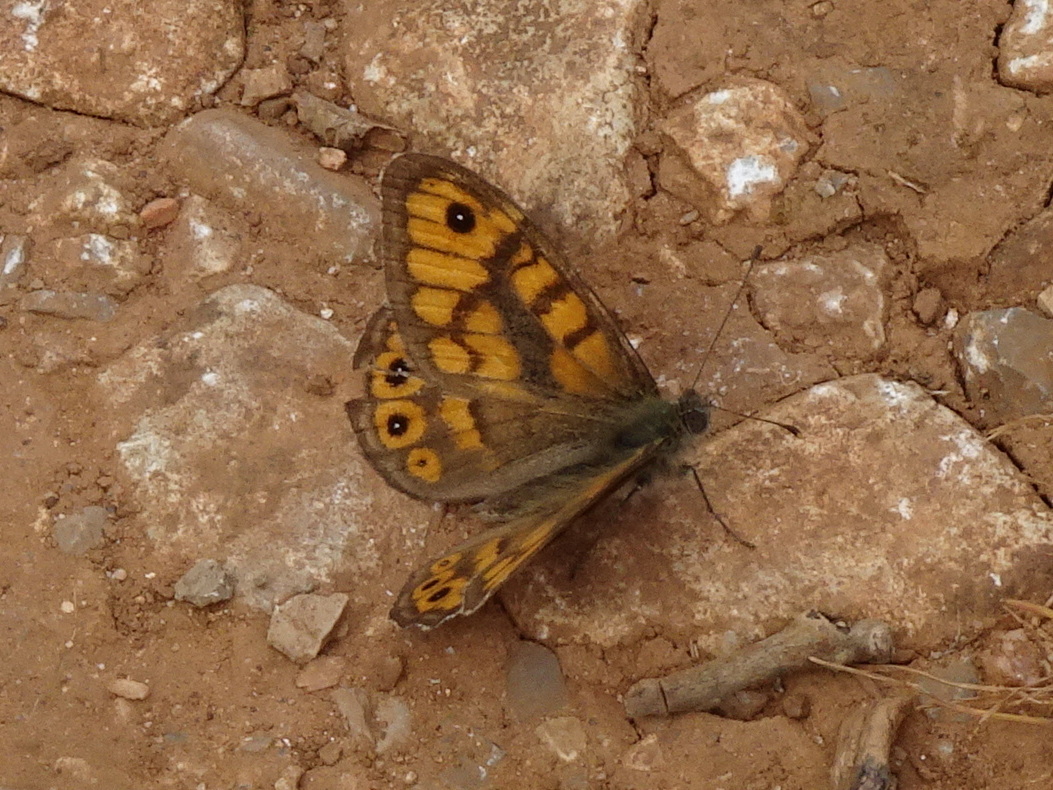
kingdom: Animalia
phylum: Arthropoda
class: Insecta
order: Lepidoptera
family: Nymphalidae
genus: Pararge
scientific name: Pararge Lasiommata megera
